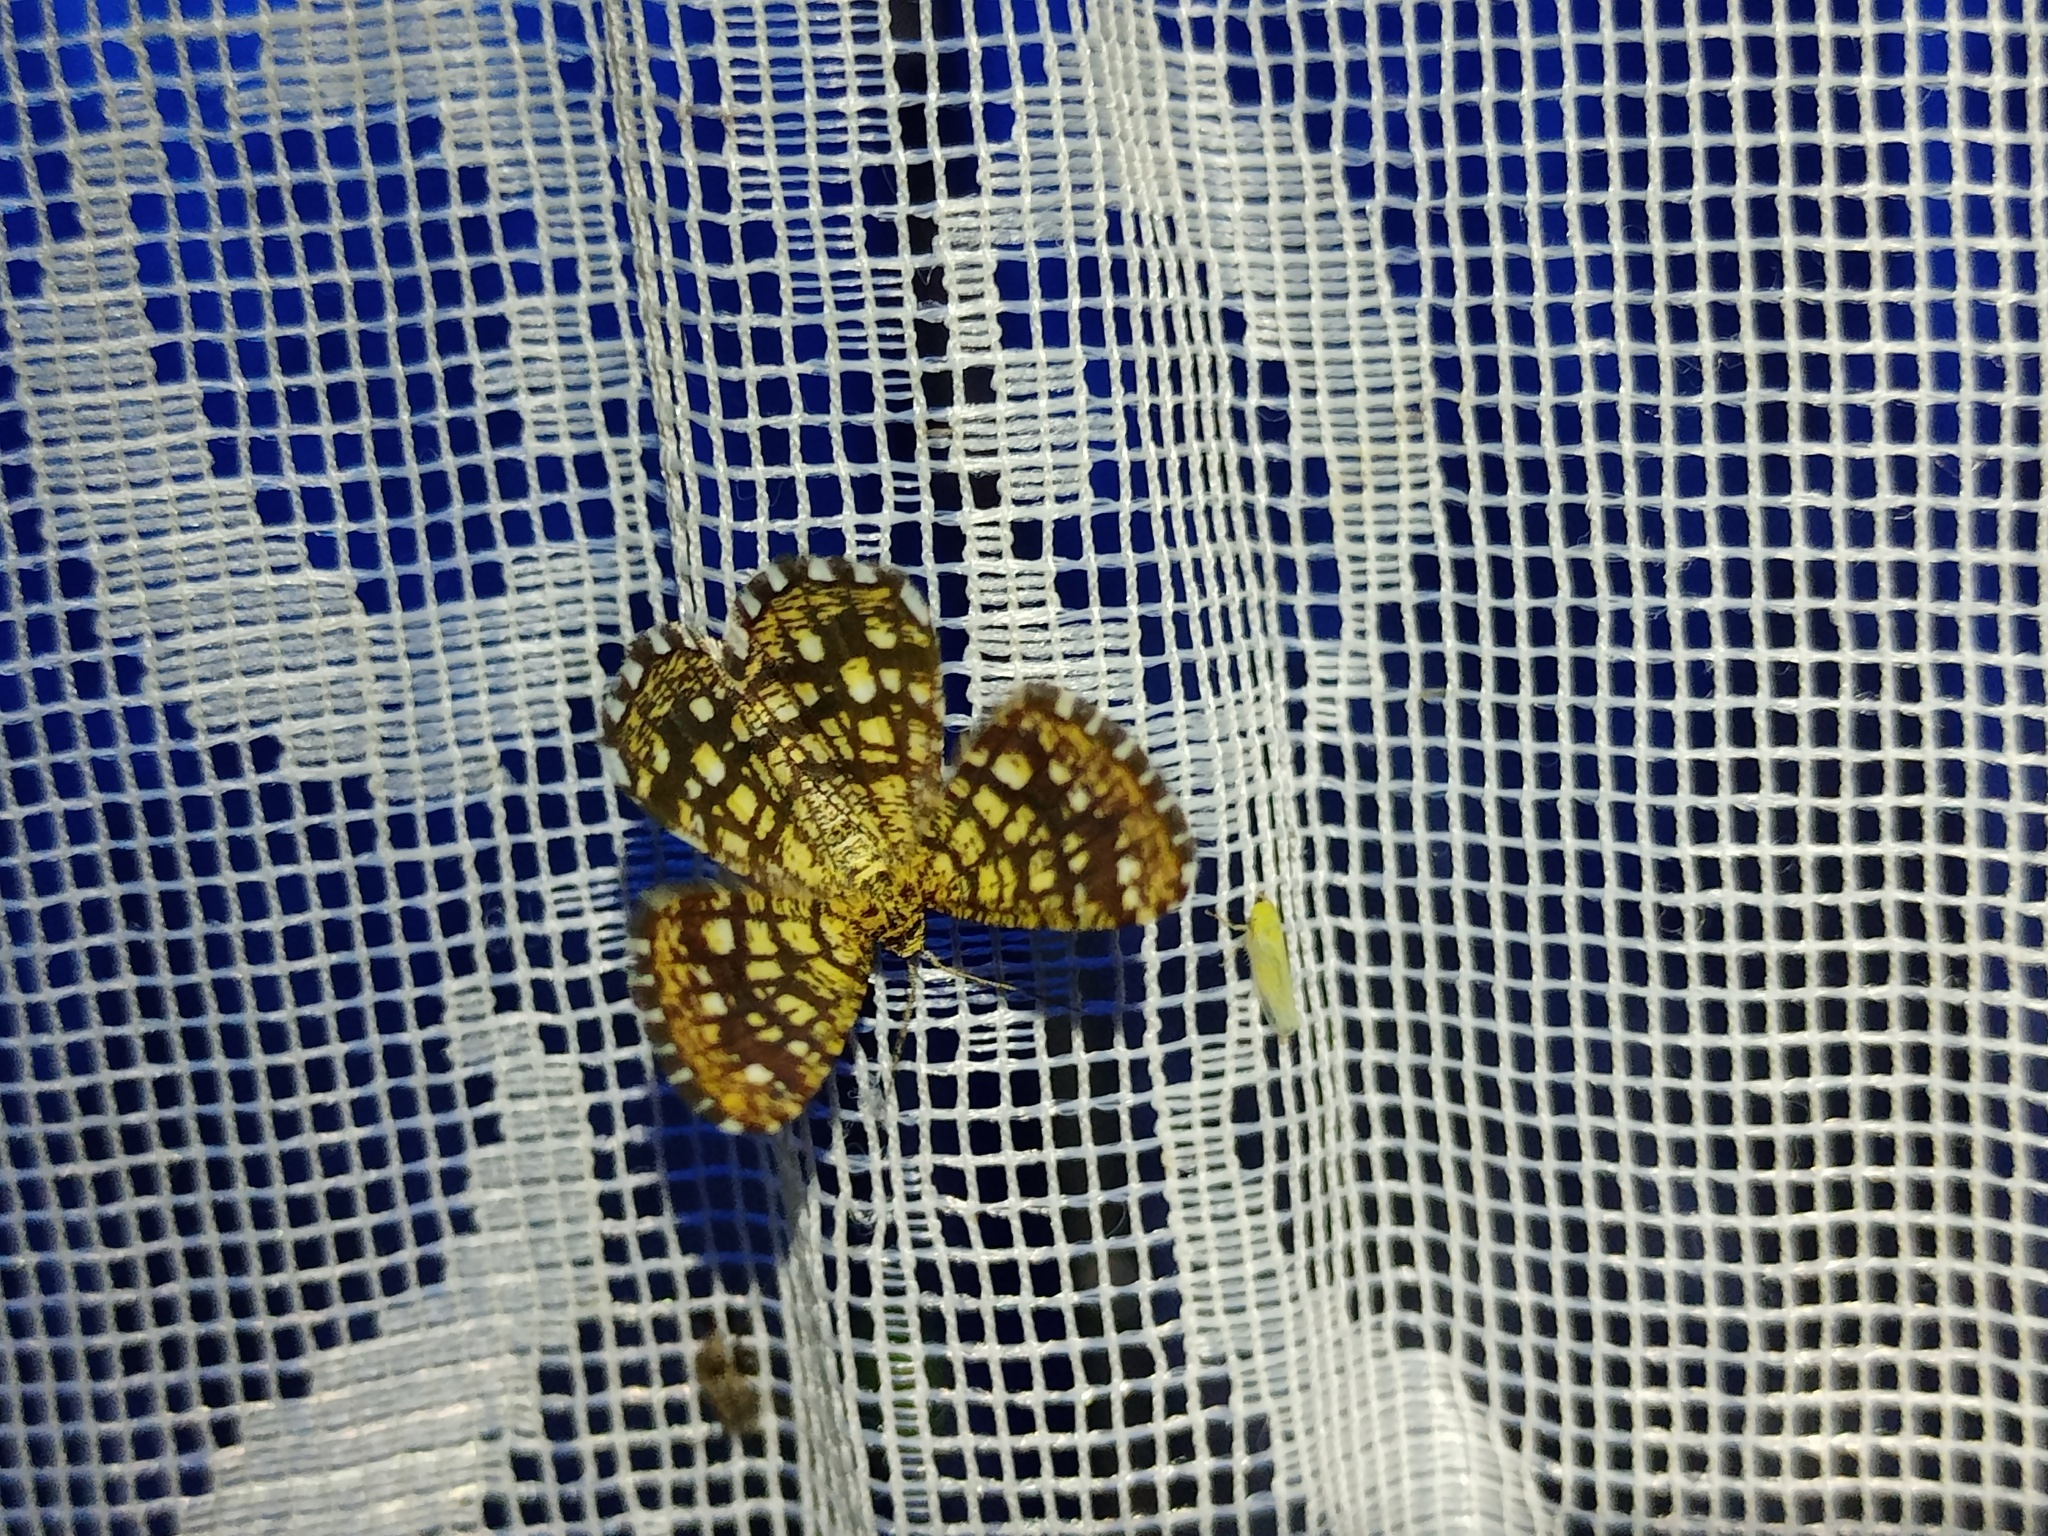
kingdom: Animalia
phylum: Arthropoda
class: Insecta
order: Lepidoptera
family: Geometridae
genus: Chiasmia
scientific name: Chiasmia clathrata
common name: Latticed heath
